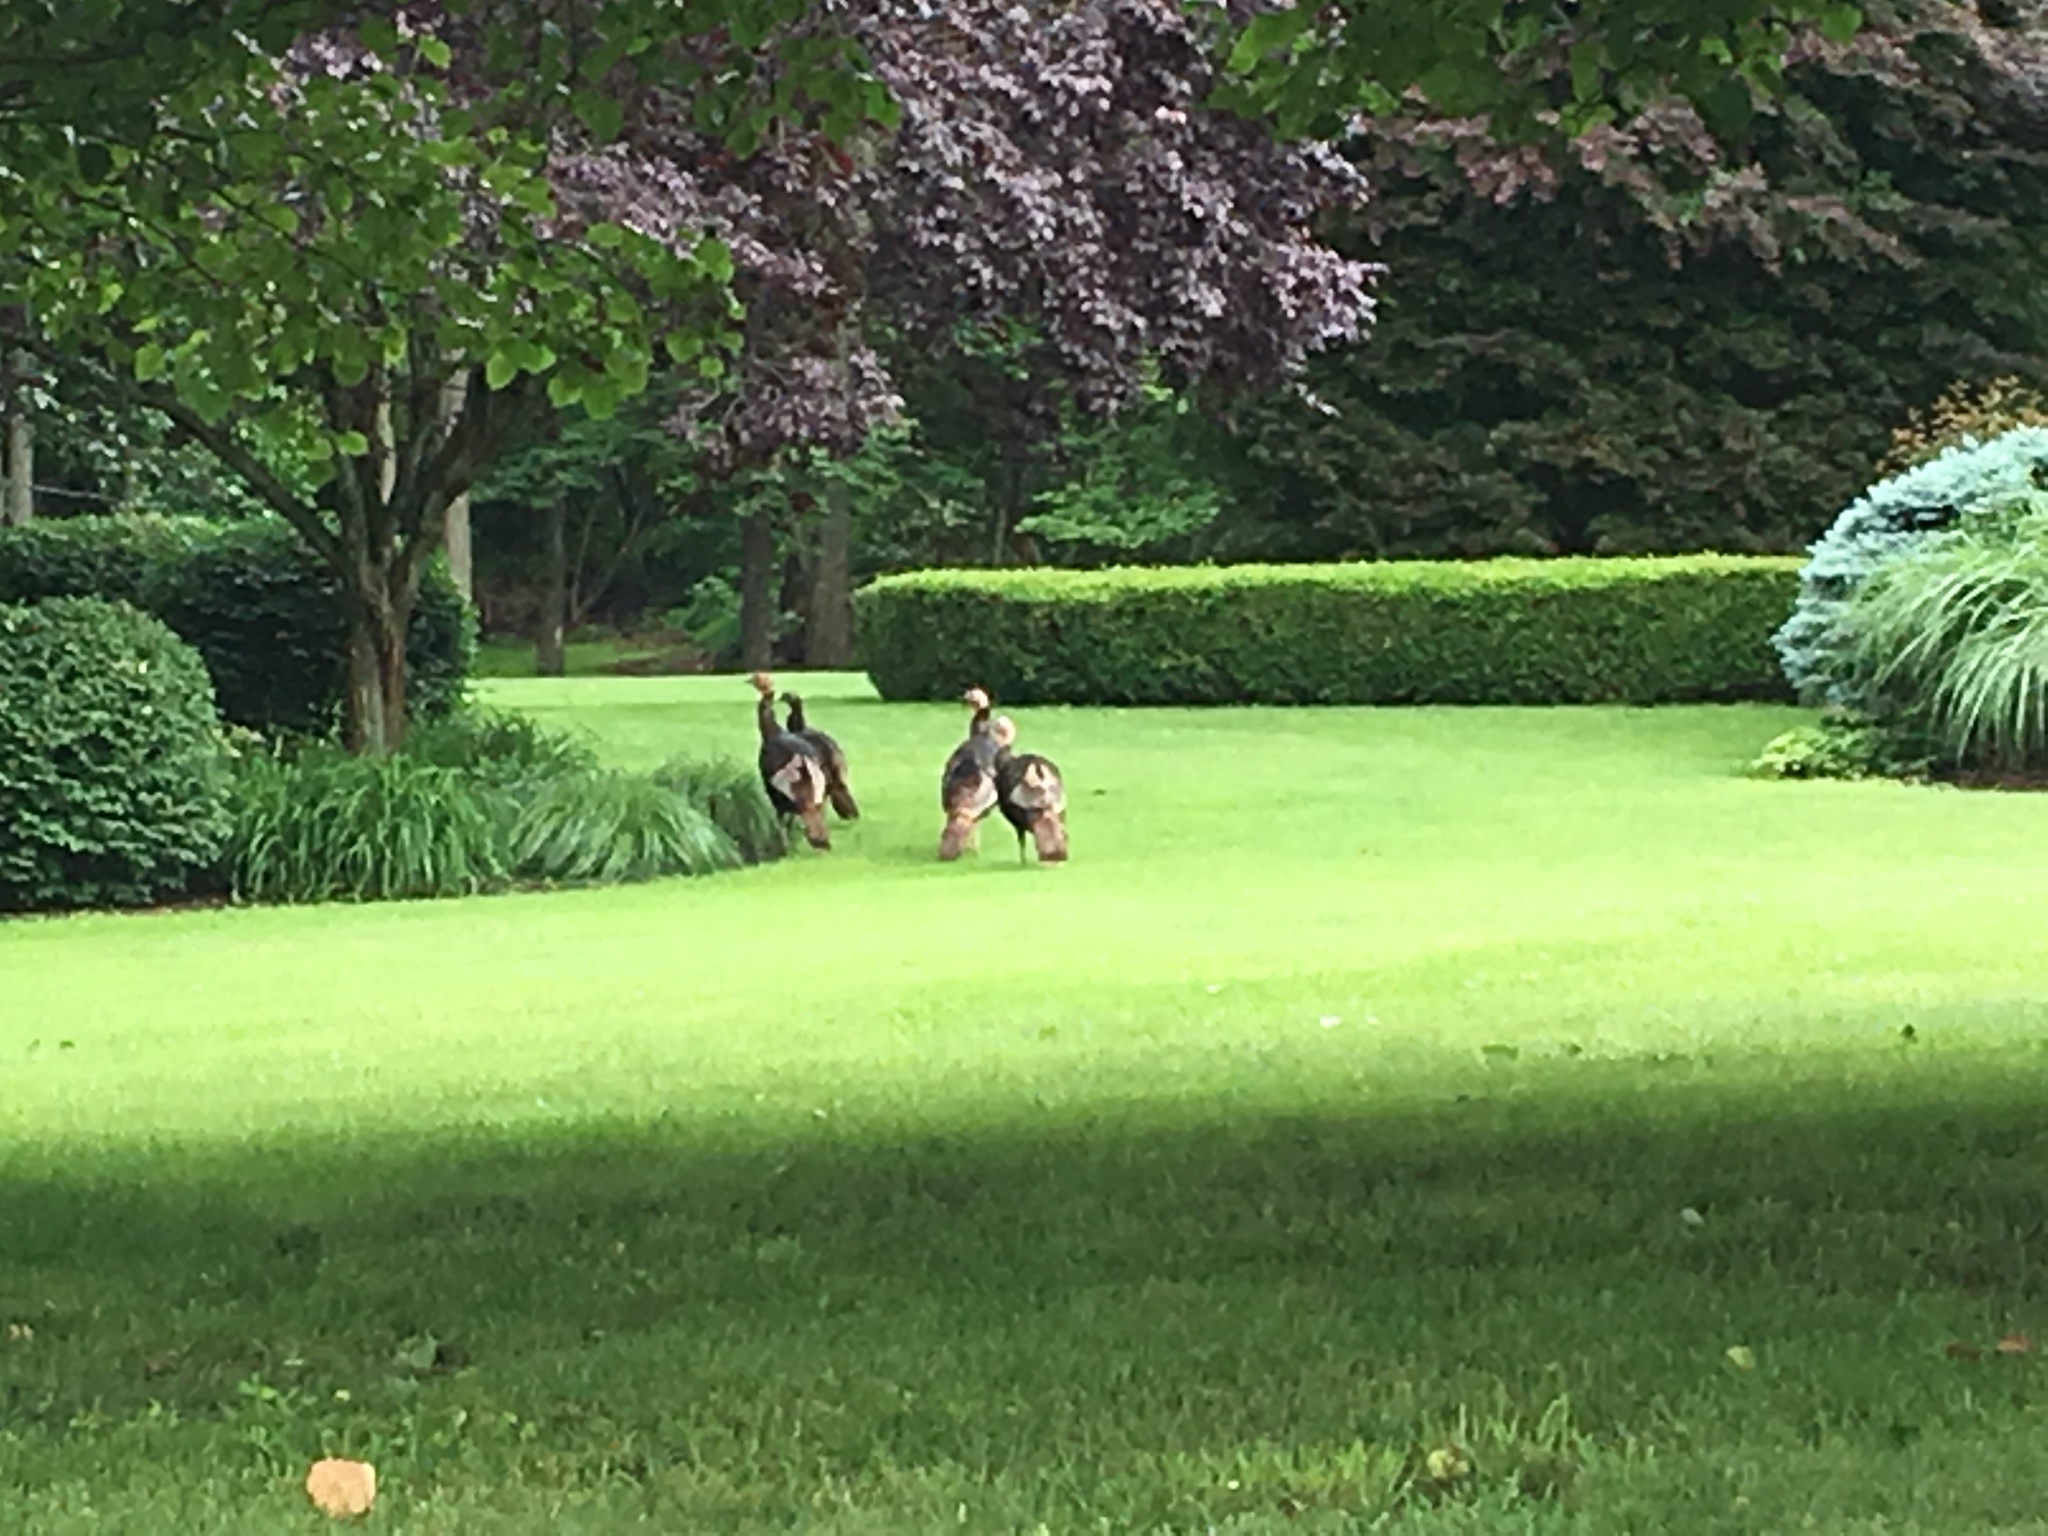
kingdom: Animalia
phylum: Chordata
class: Aves
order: Galliformes
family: Phasianidae
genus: Meleagris
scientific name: Meleagris gallopavo
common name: Wild turkey
